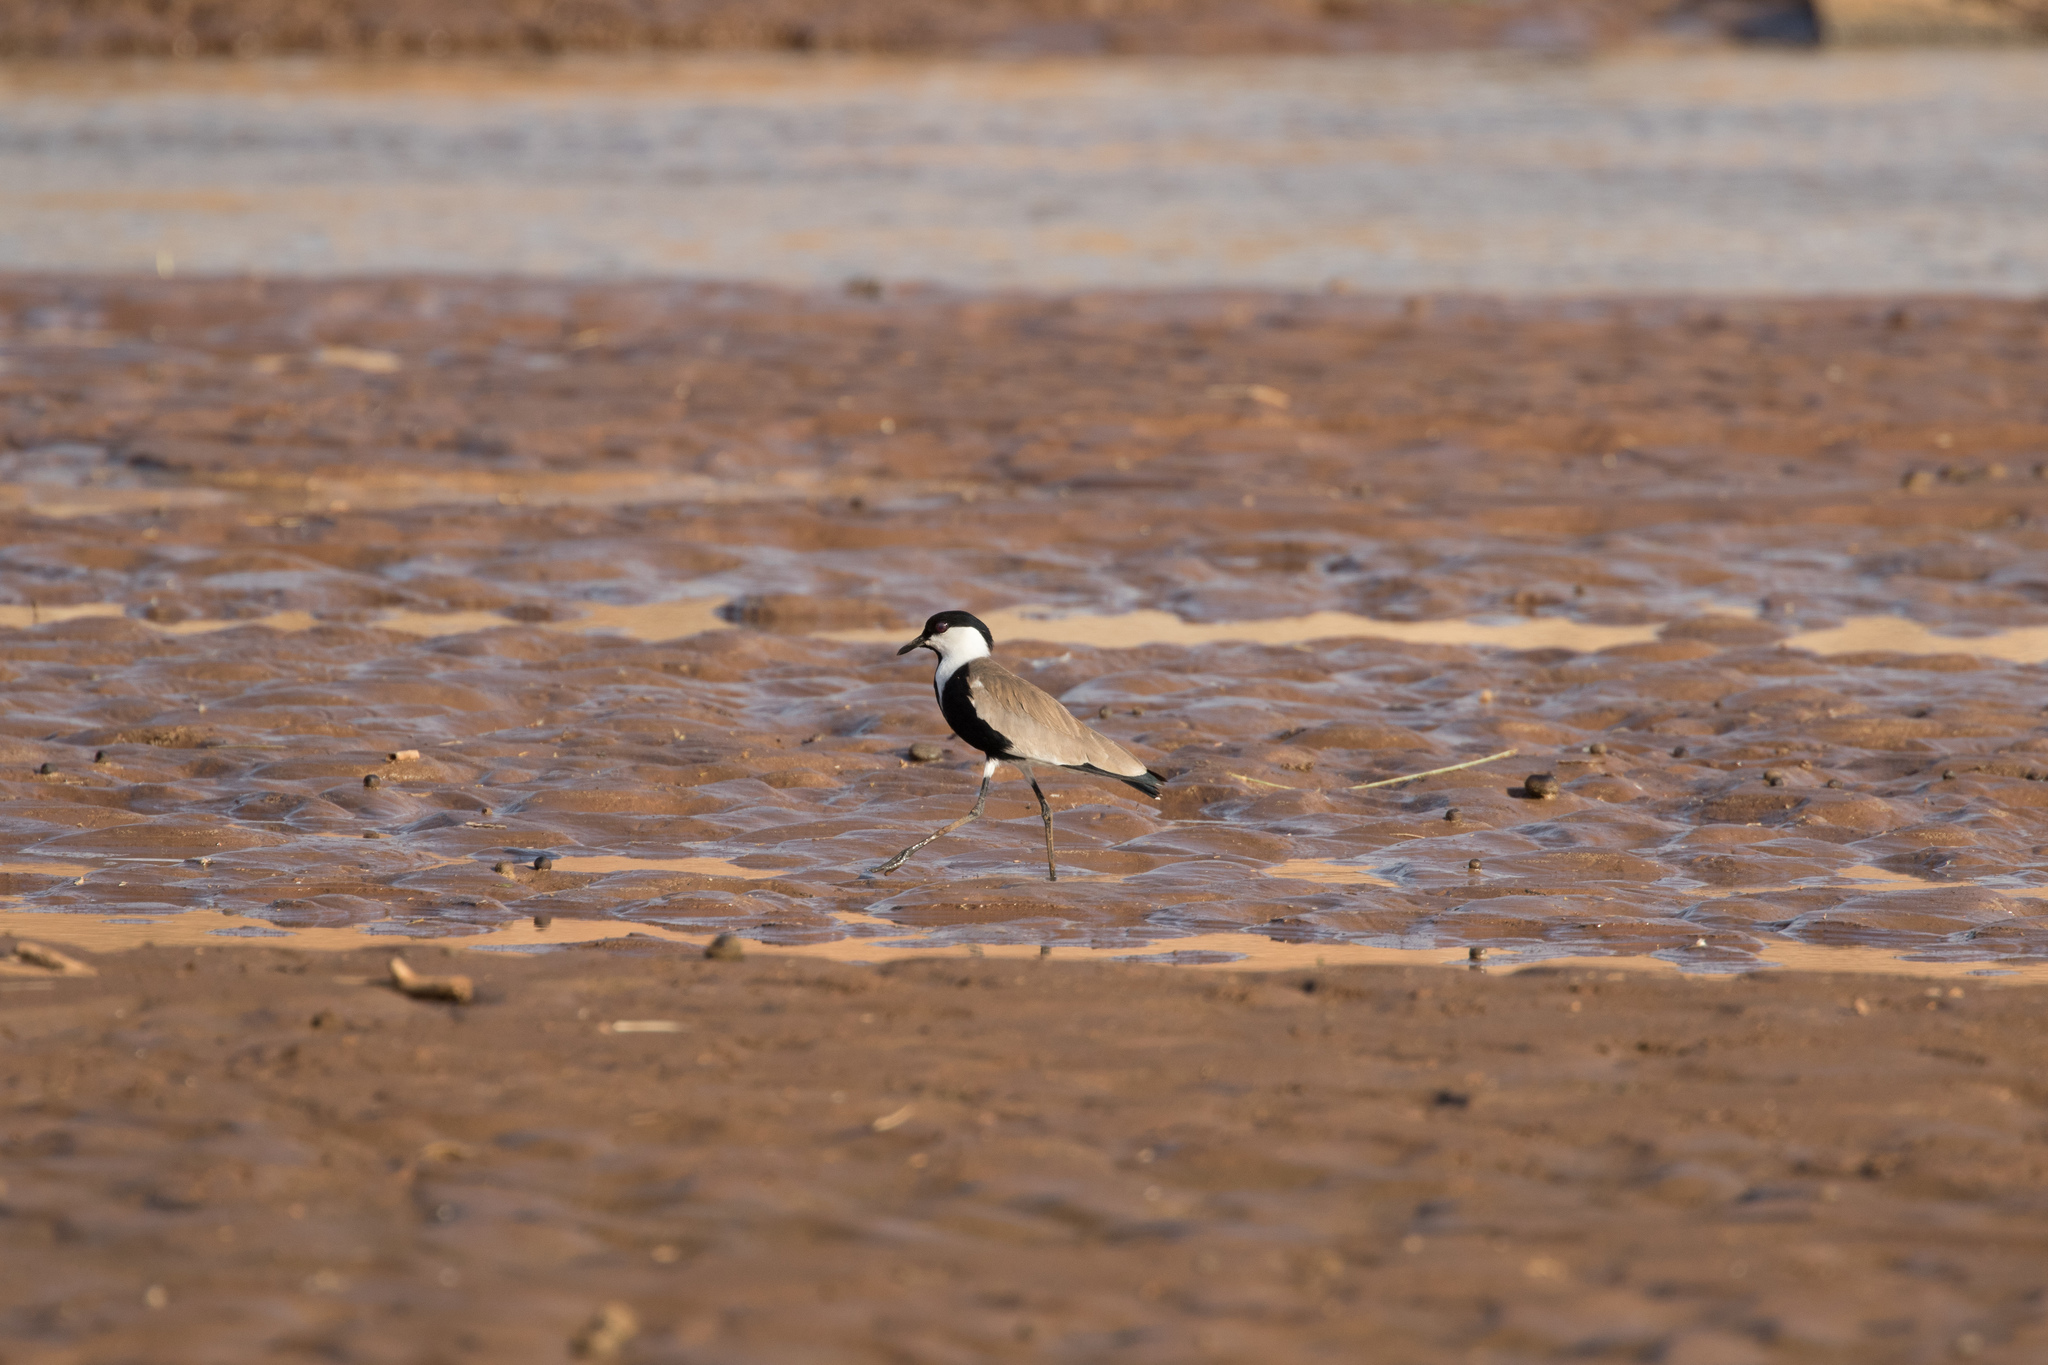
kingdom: Animalia
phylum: Chordata
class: Aves
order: Charadriiformes
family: Charadriidae
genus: Vanellus
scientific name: Vanellus spinosus
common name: Spur-winged lapwing
